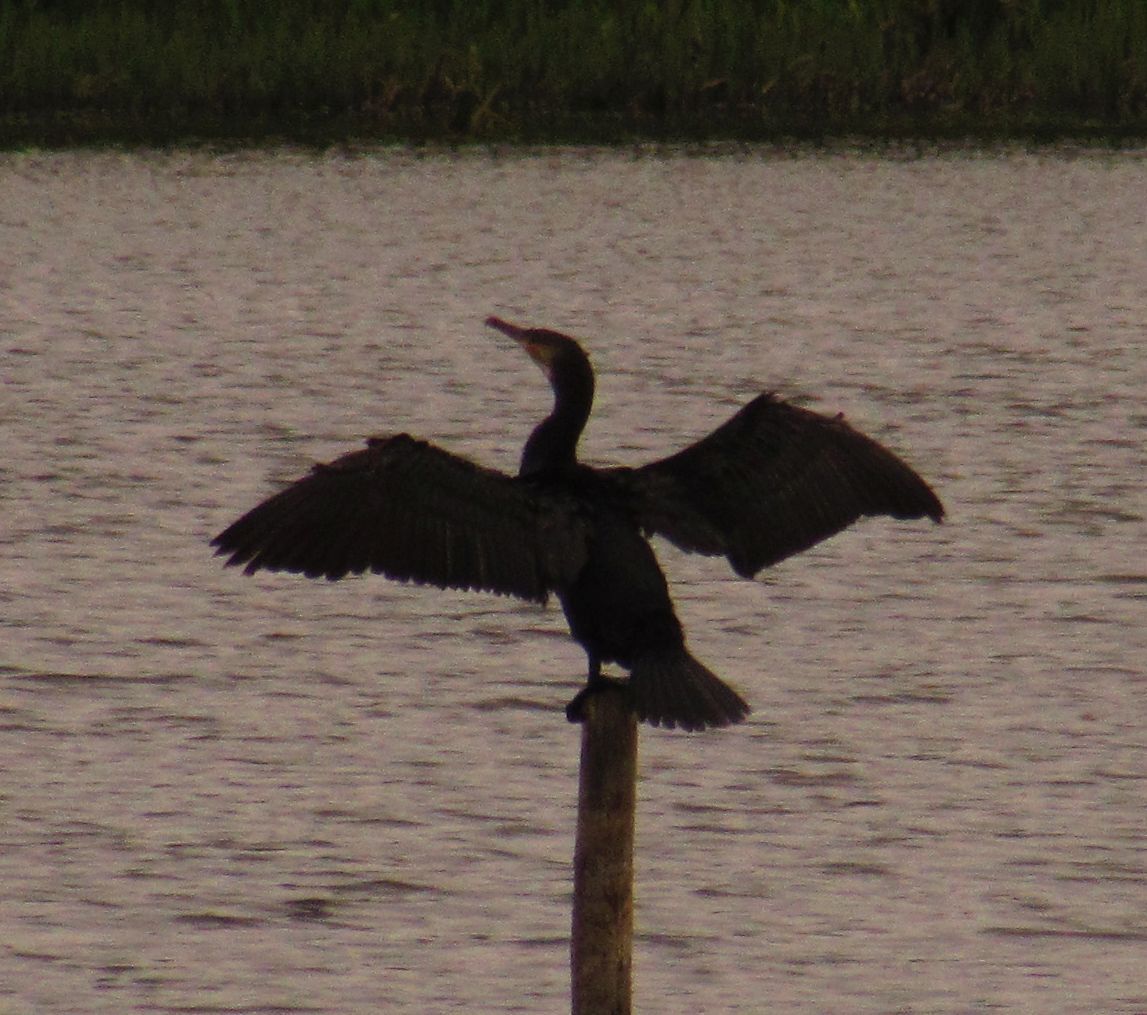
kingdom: Animalia
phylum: Chordata
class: Aves
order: Suliformes
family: Phalacrocoracidae
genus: Phalacrocorax
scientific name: Phalacrocorax carbo
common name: Great cormorant
